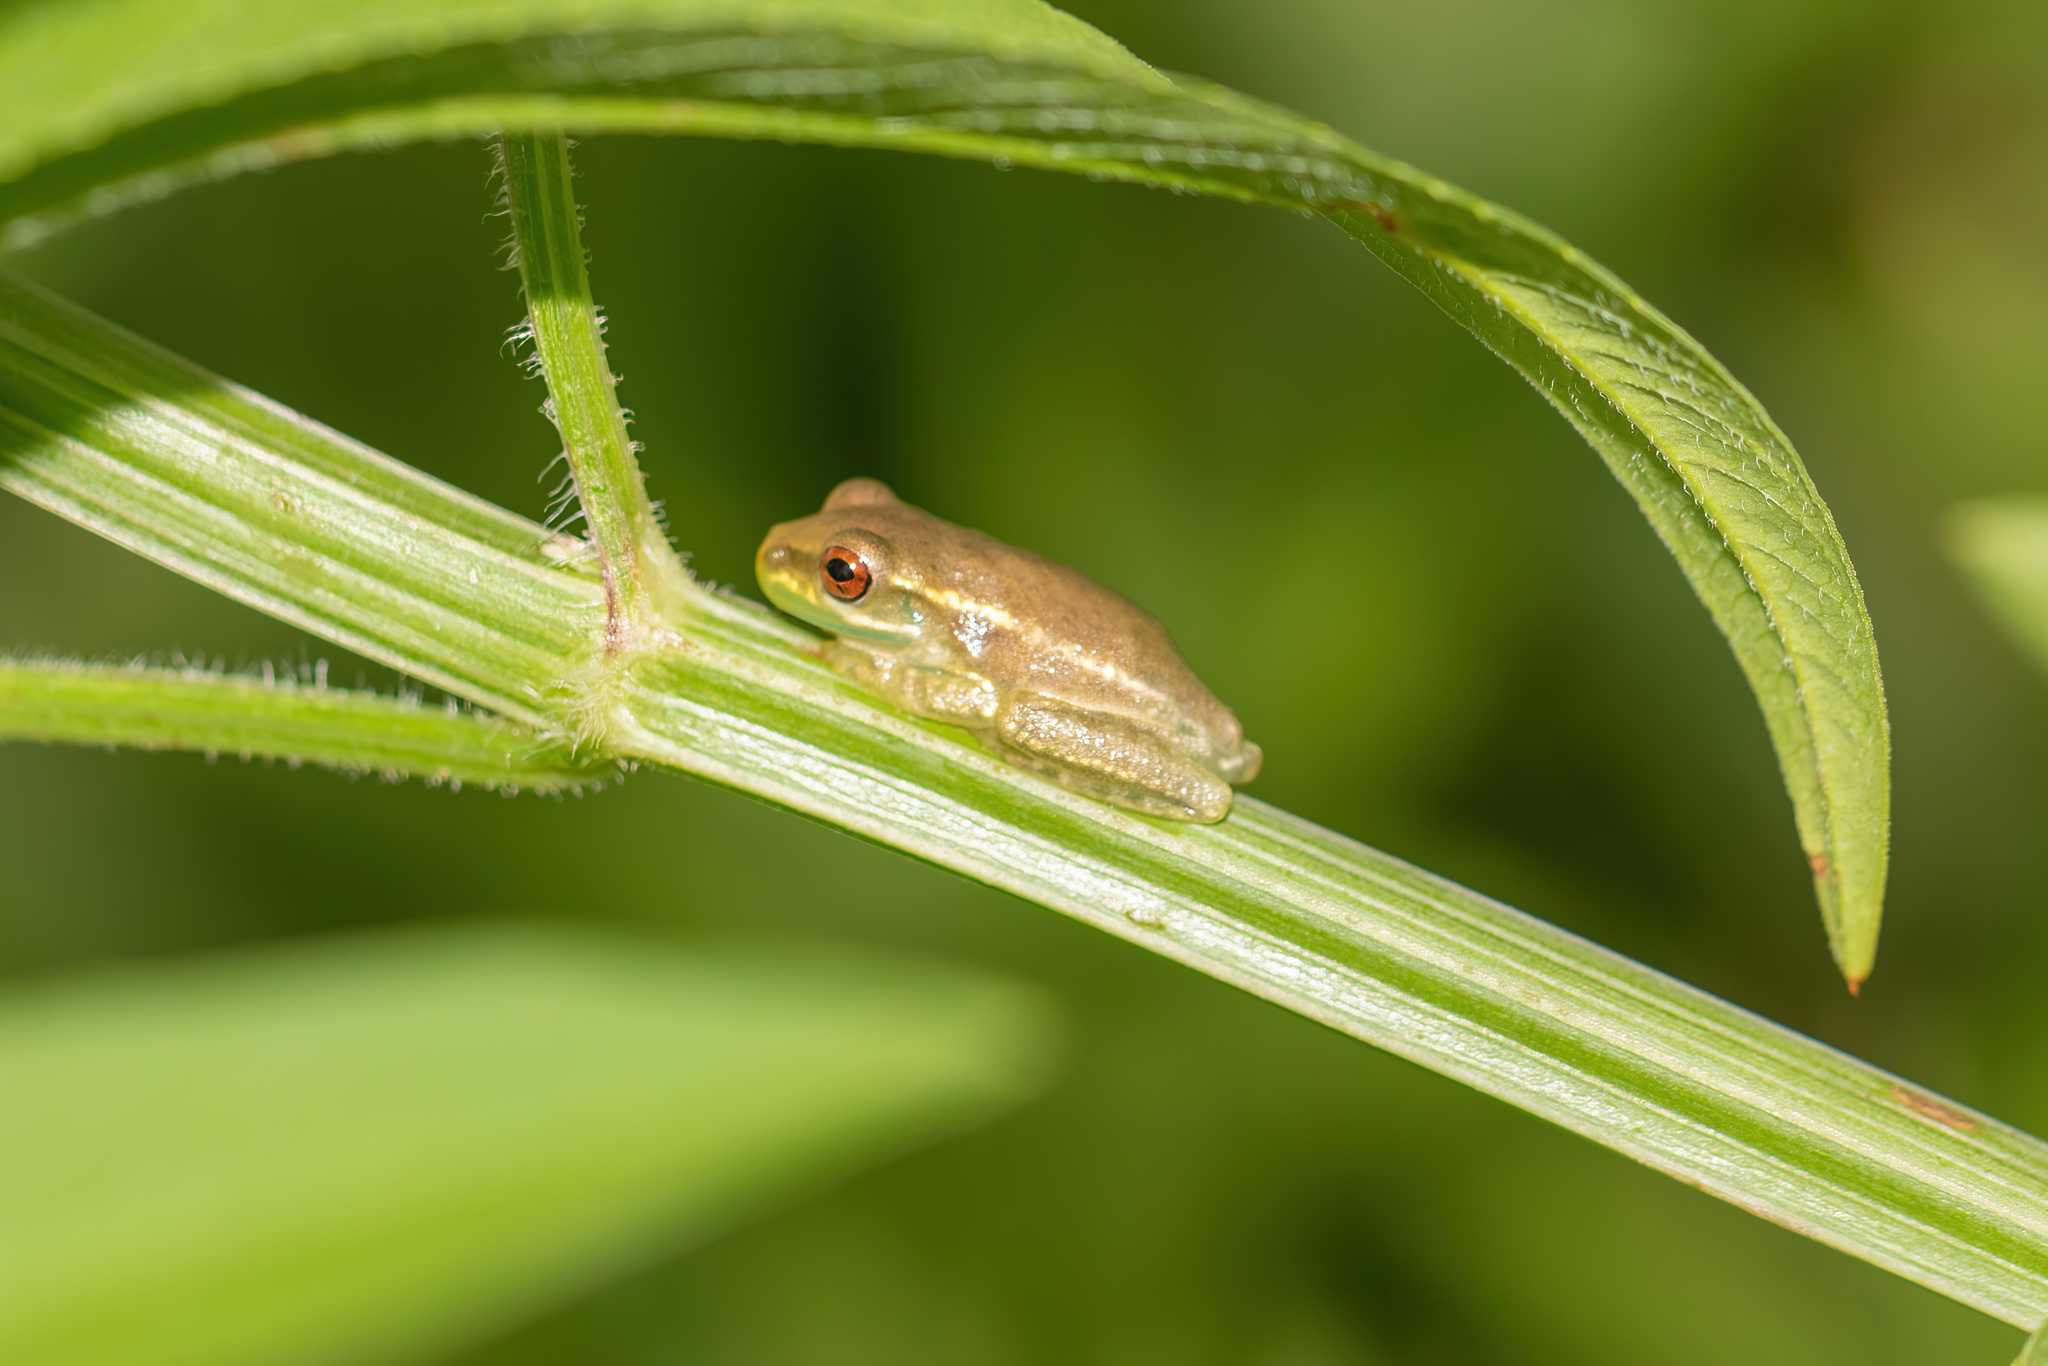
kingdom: Animalia
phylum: Chordata
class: Amphibia
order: Anura
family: Hylidae
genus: Osteopilus
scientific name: Osteopilus septentrionalis
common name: Cuban treefrog
